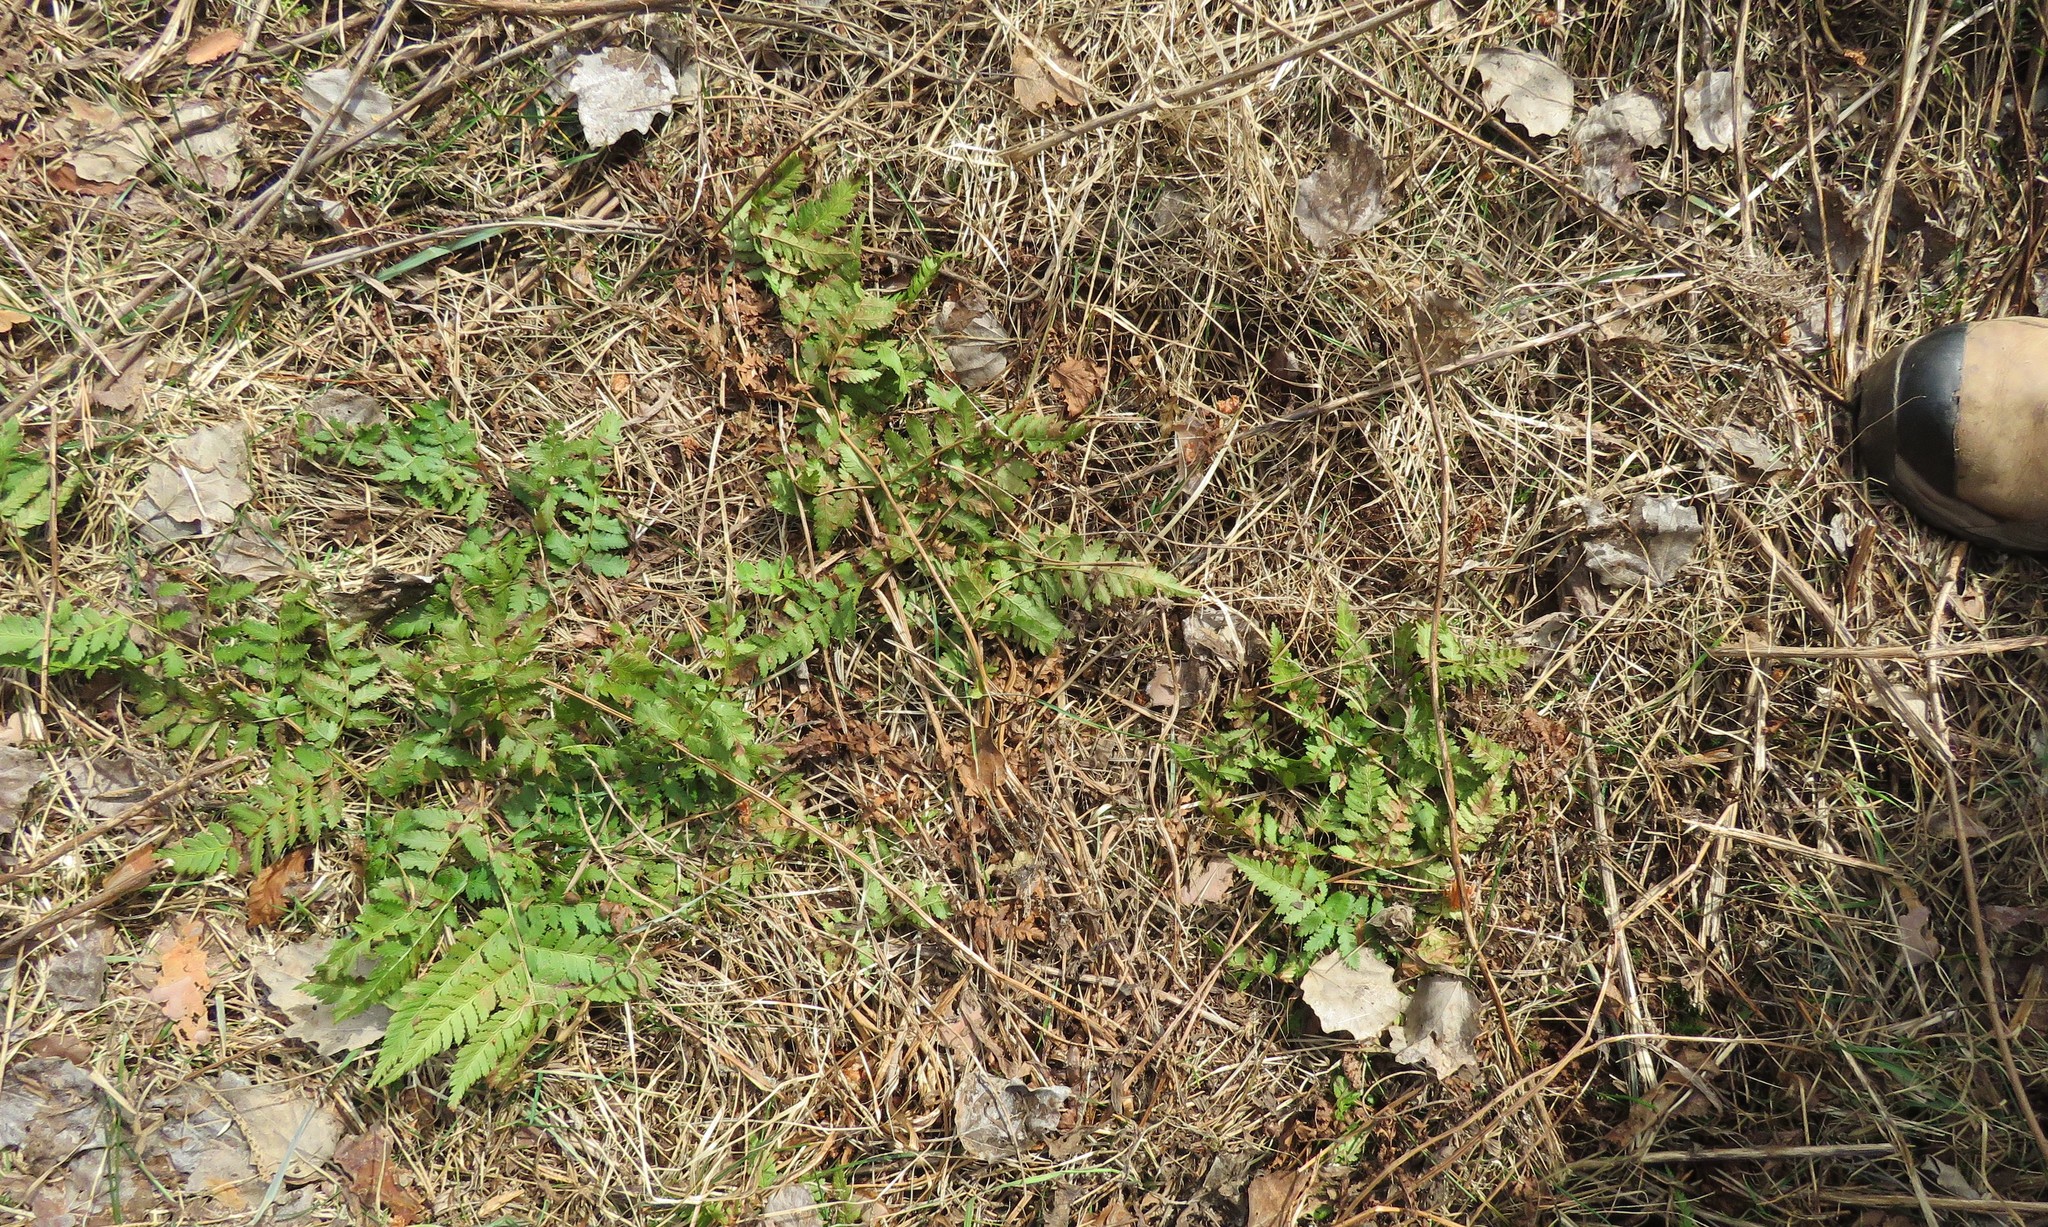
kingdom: Plantae
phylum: Tracheophyta
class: Polypodiopsida
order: Polypodiales
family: Dryopteridaceae
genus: Dryopteris
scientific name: Dryopteris intermedia
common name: Evergreen wood fern
